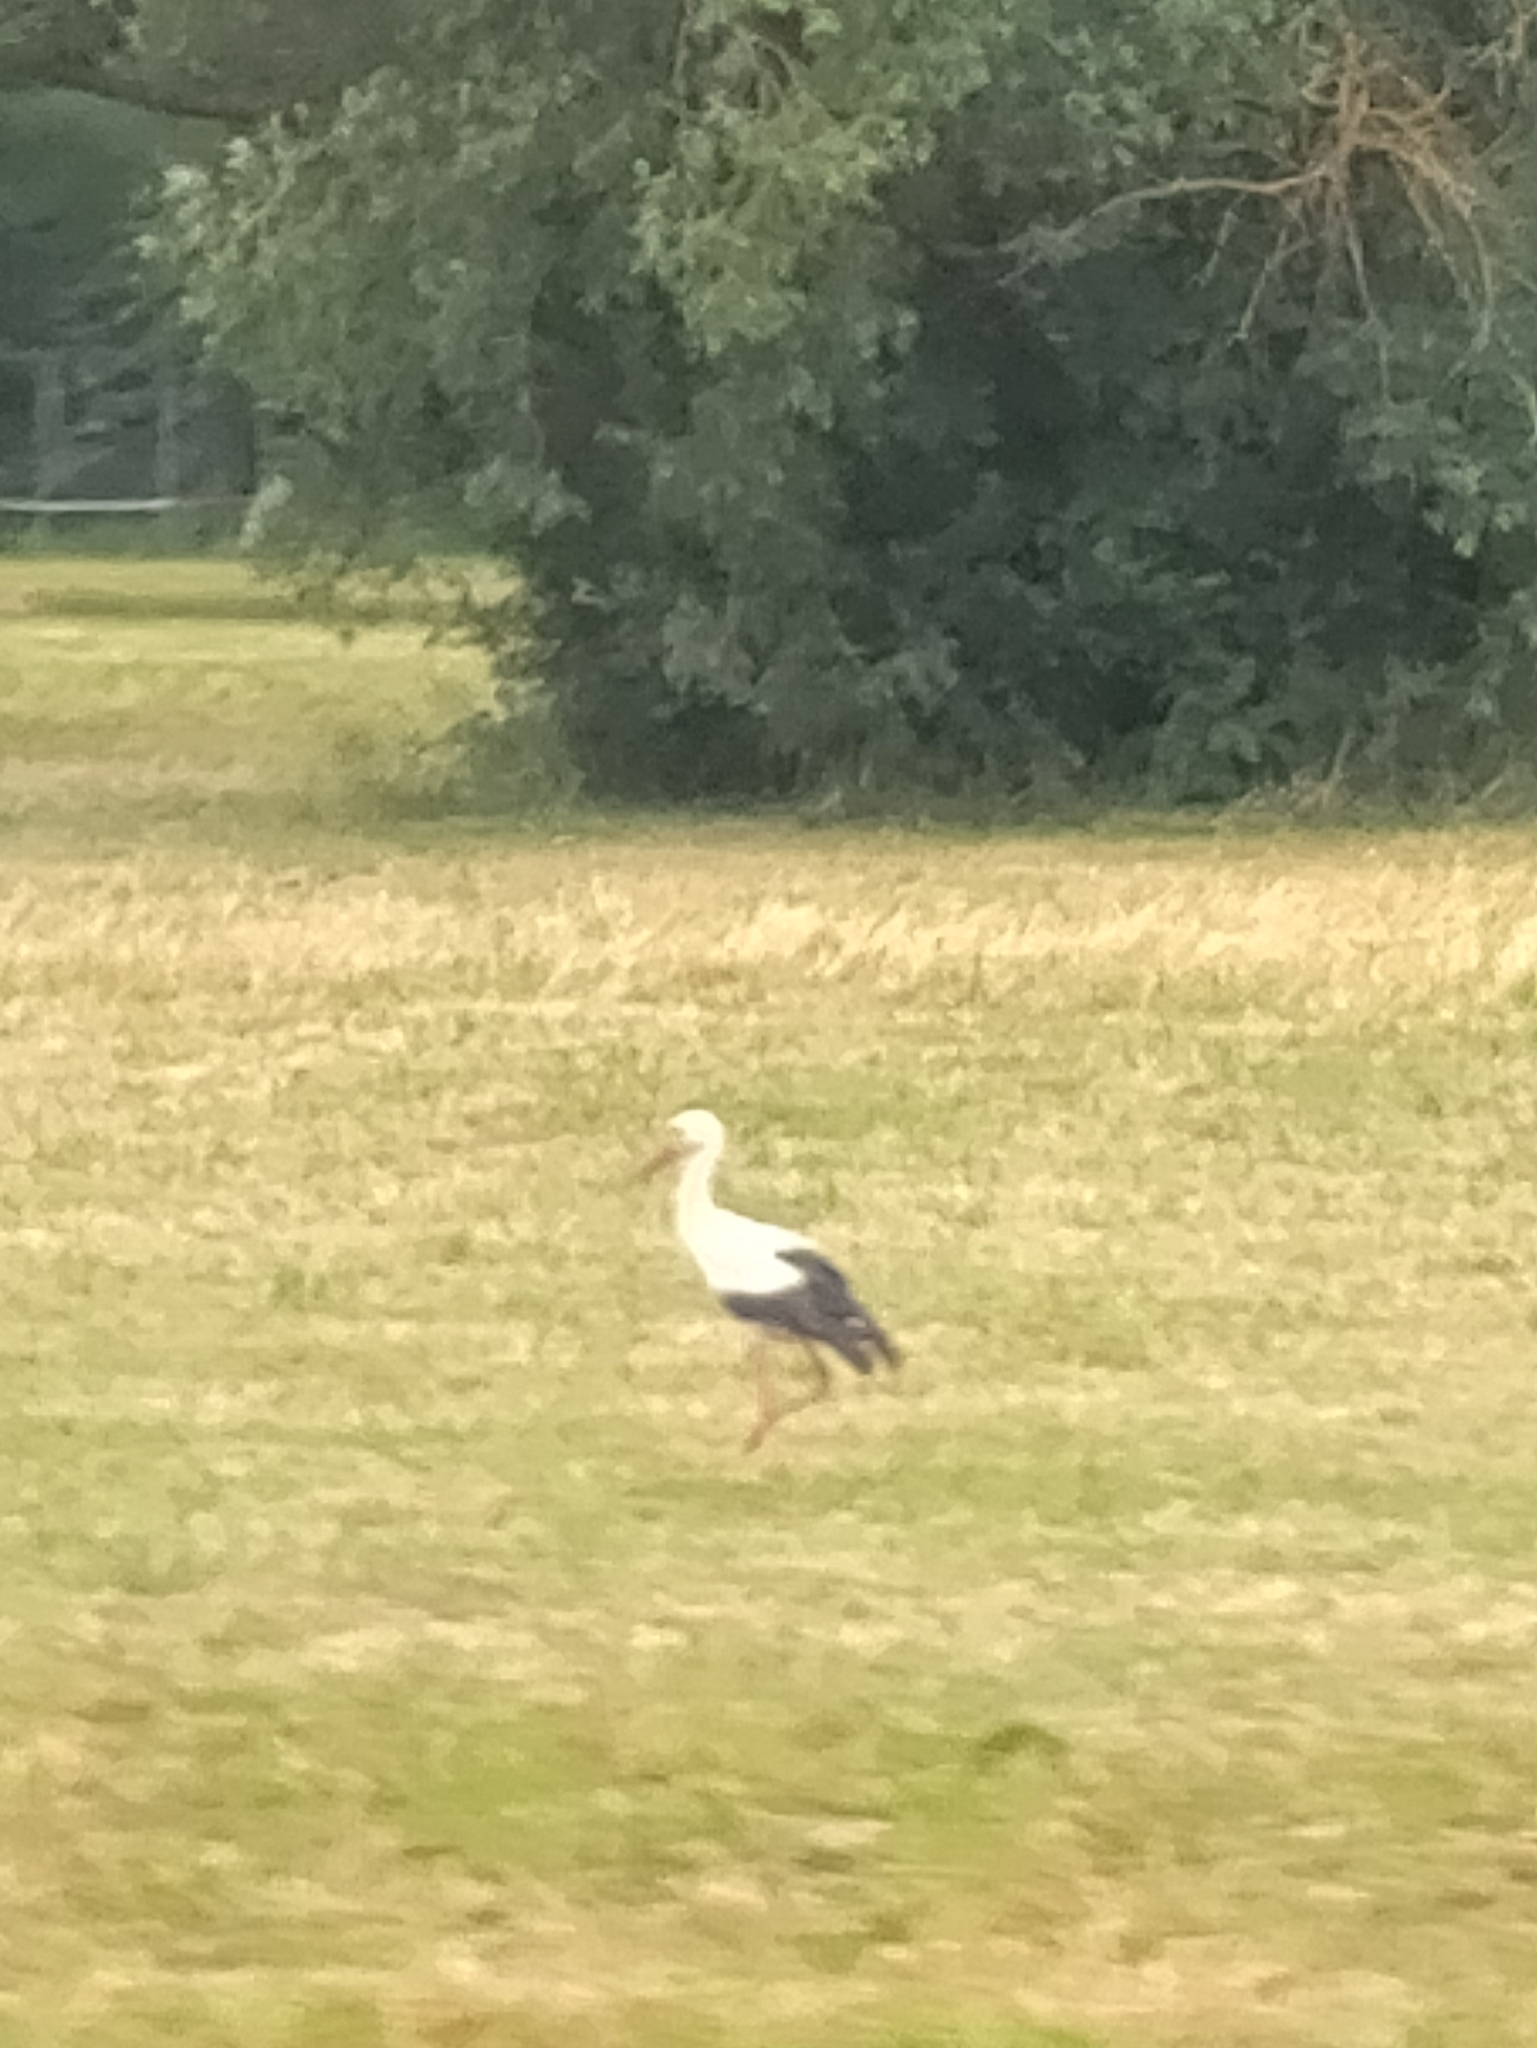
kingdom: Animalia
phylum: Chordata
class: Aves
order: Ciconiiformes
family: Ciconiidae
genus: Ciconia
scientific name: Ciconia ciconia
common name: White stork
